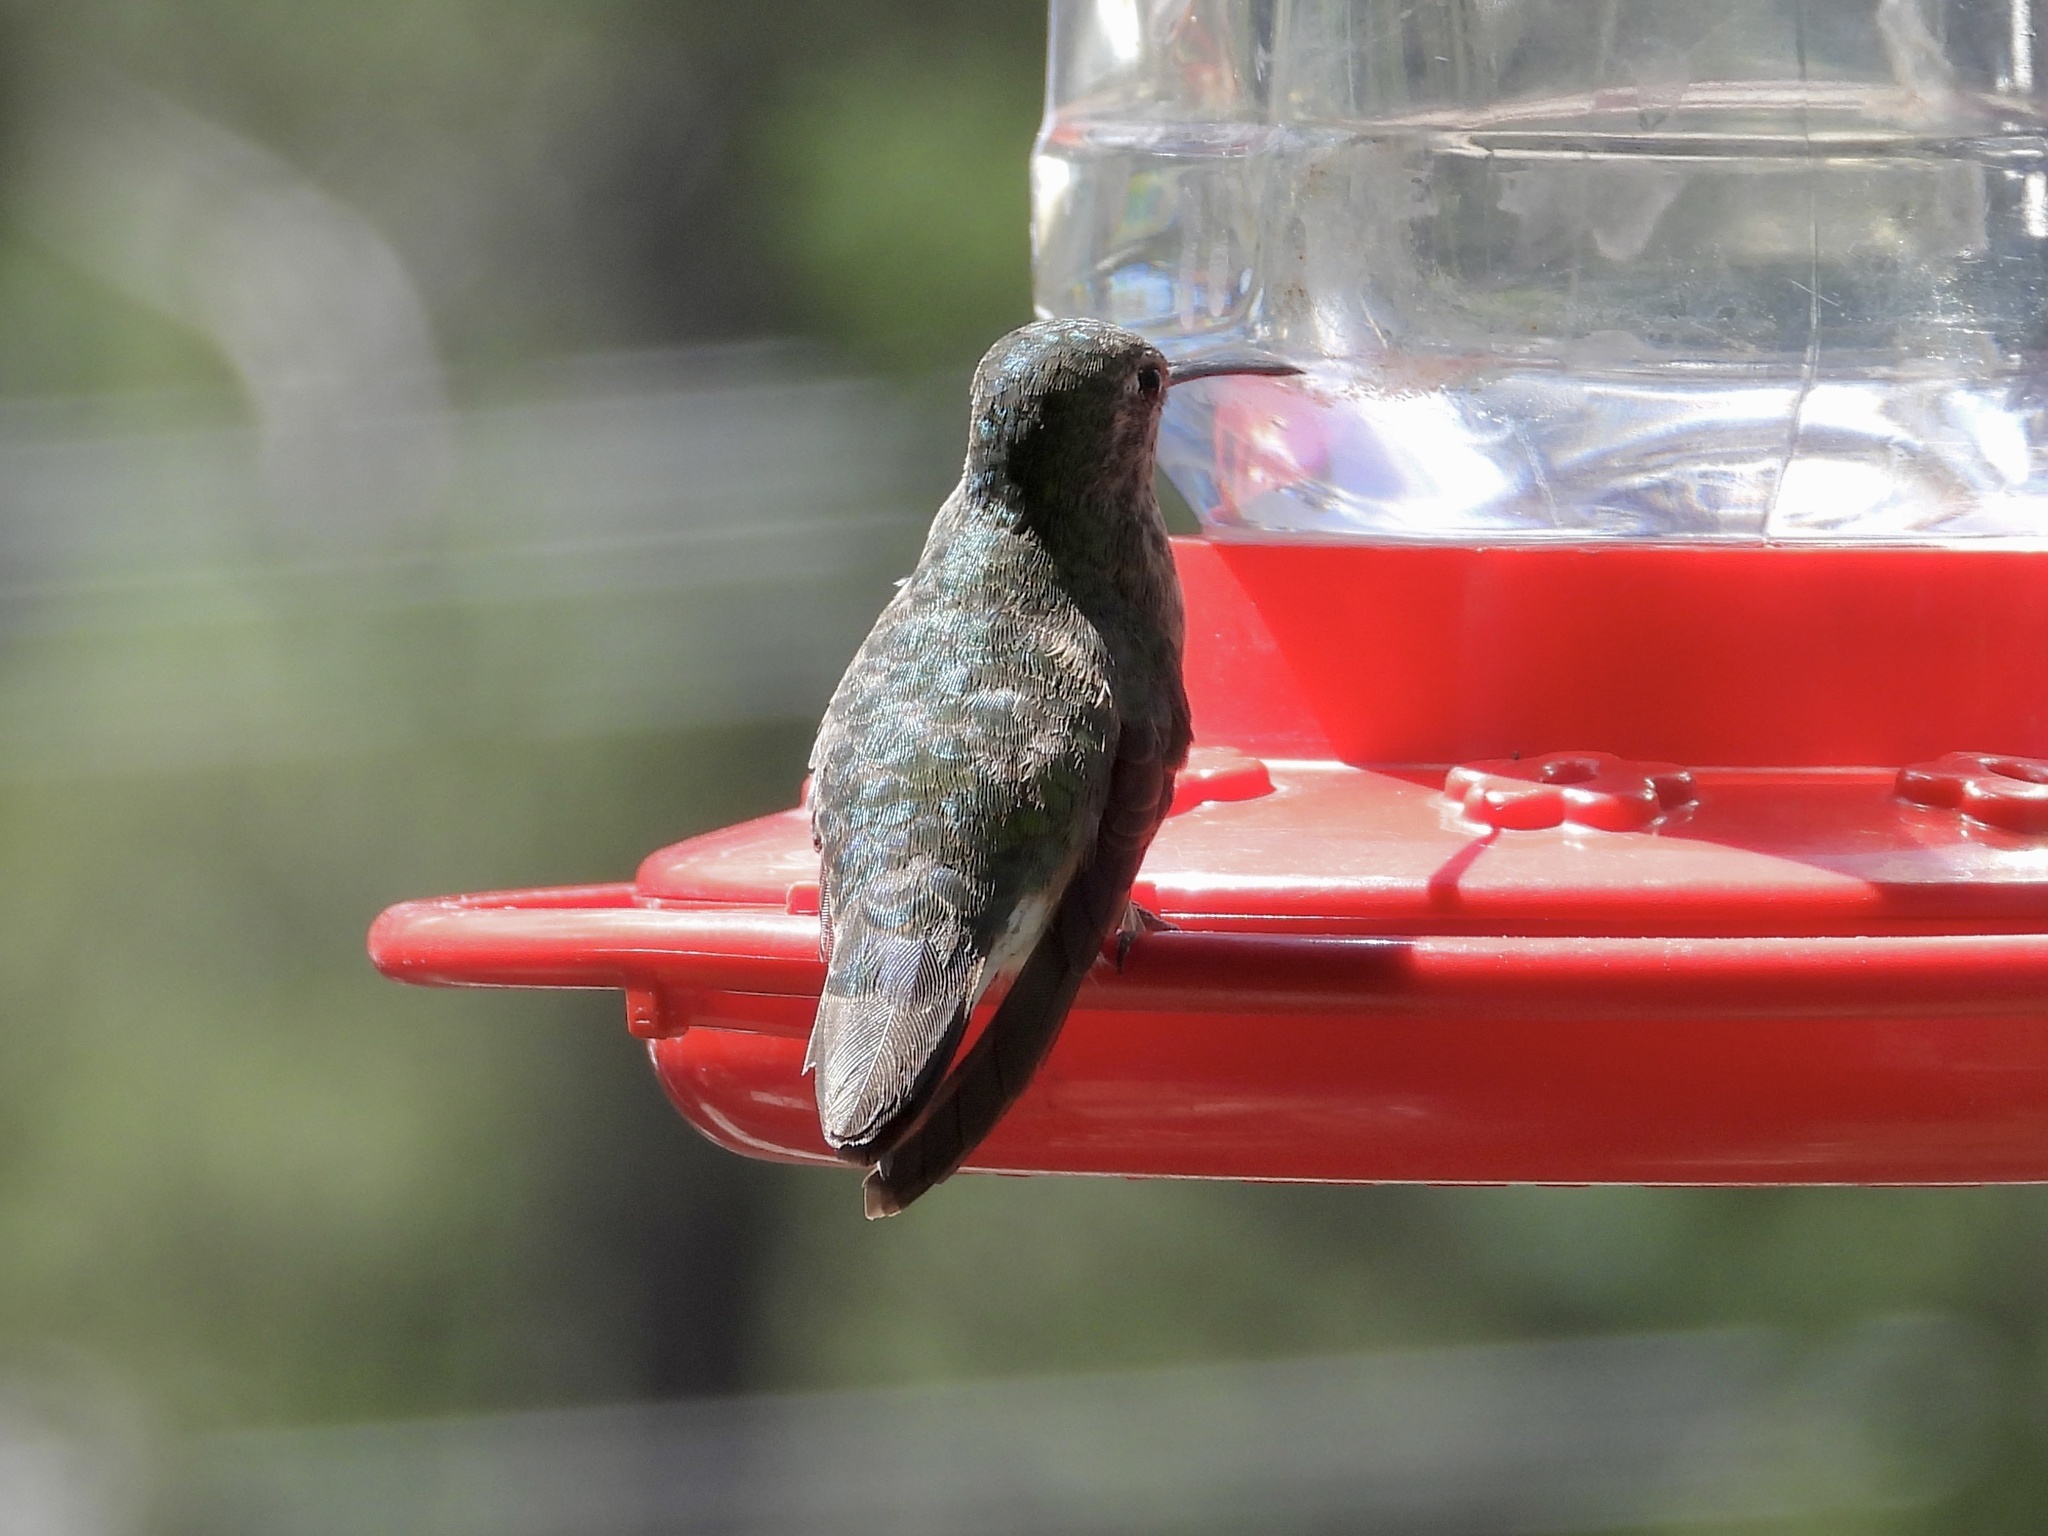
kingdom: Animalia
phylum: Chordata
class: Aves
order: Apodiformes
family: Trochilidae
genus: Selasphorus
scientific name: Selasphorus platycercus
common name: Broad-tailed hummingbird
